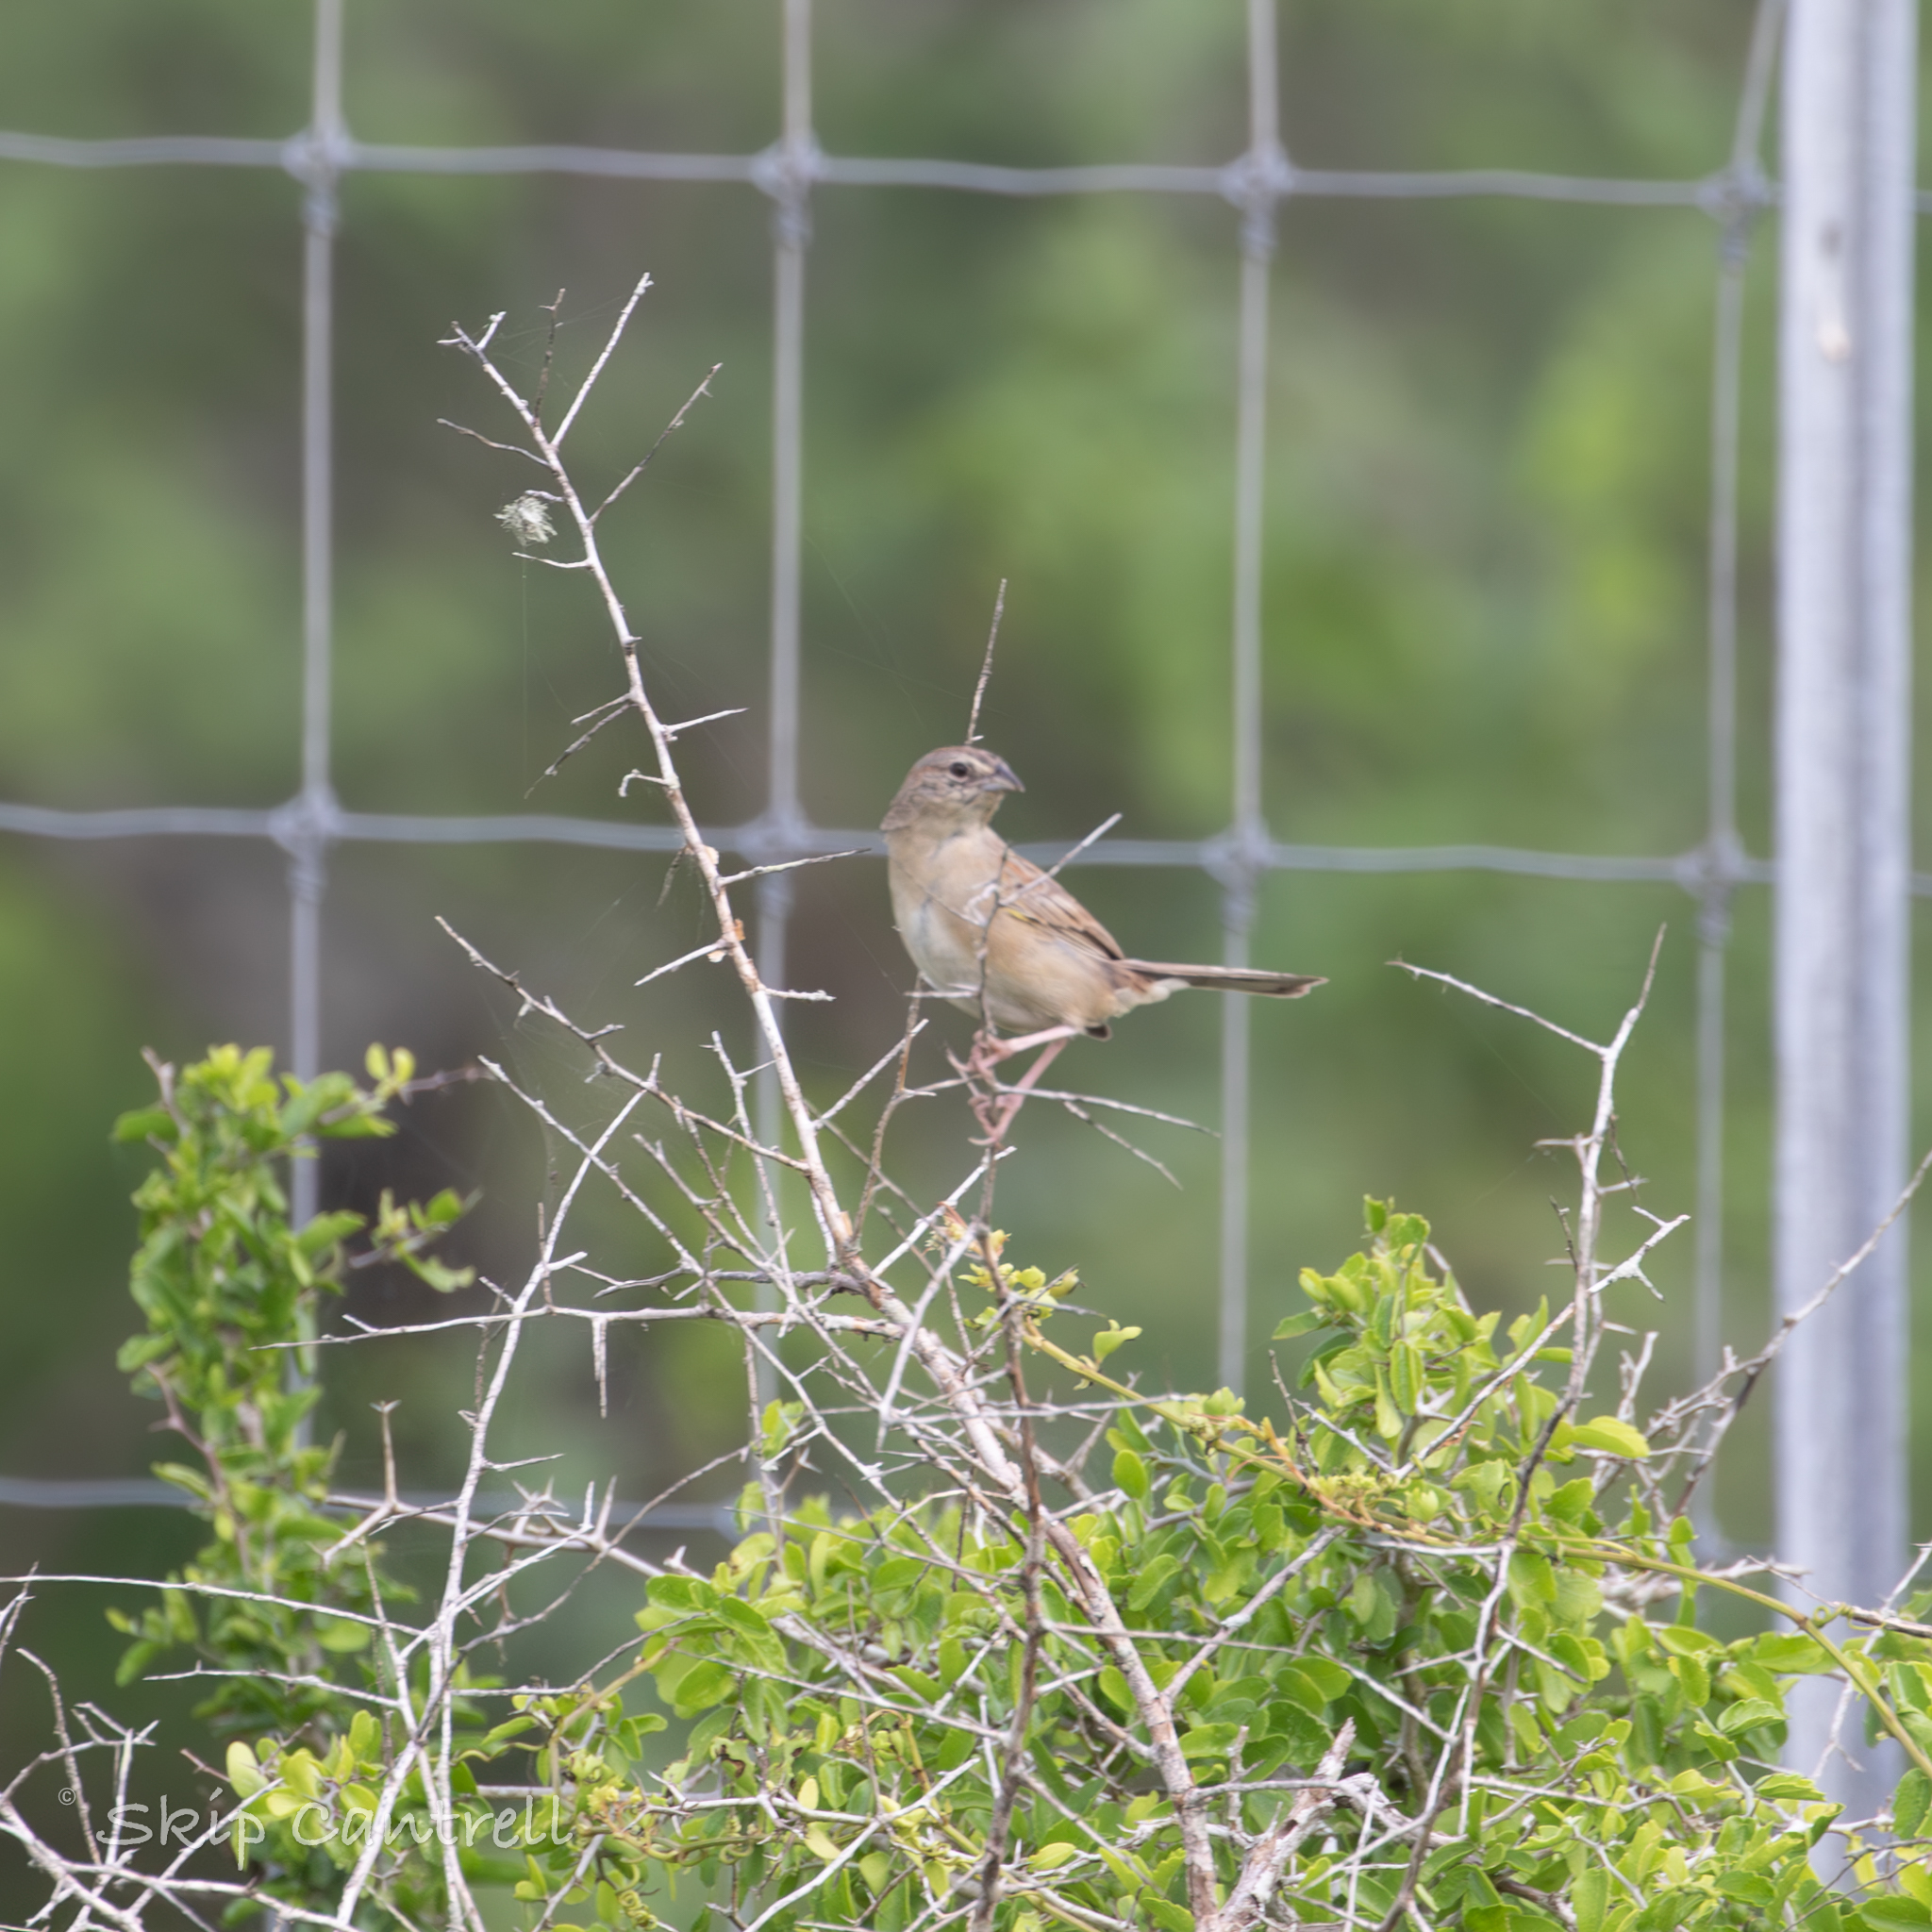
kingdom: Animalia
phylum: Chordata
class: Aves
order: Passeriformes
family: Passerellidae
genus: Peucaea
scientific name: Peucaea botterii
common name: Botteri's sparrow
